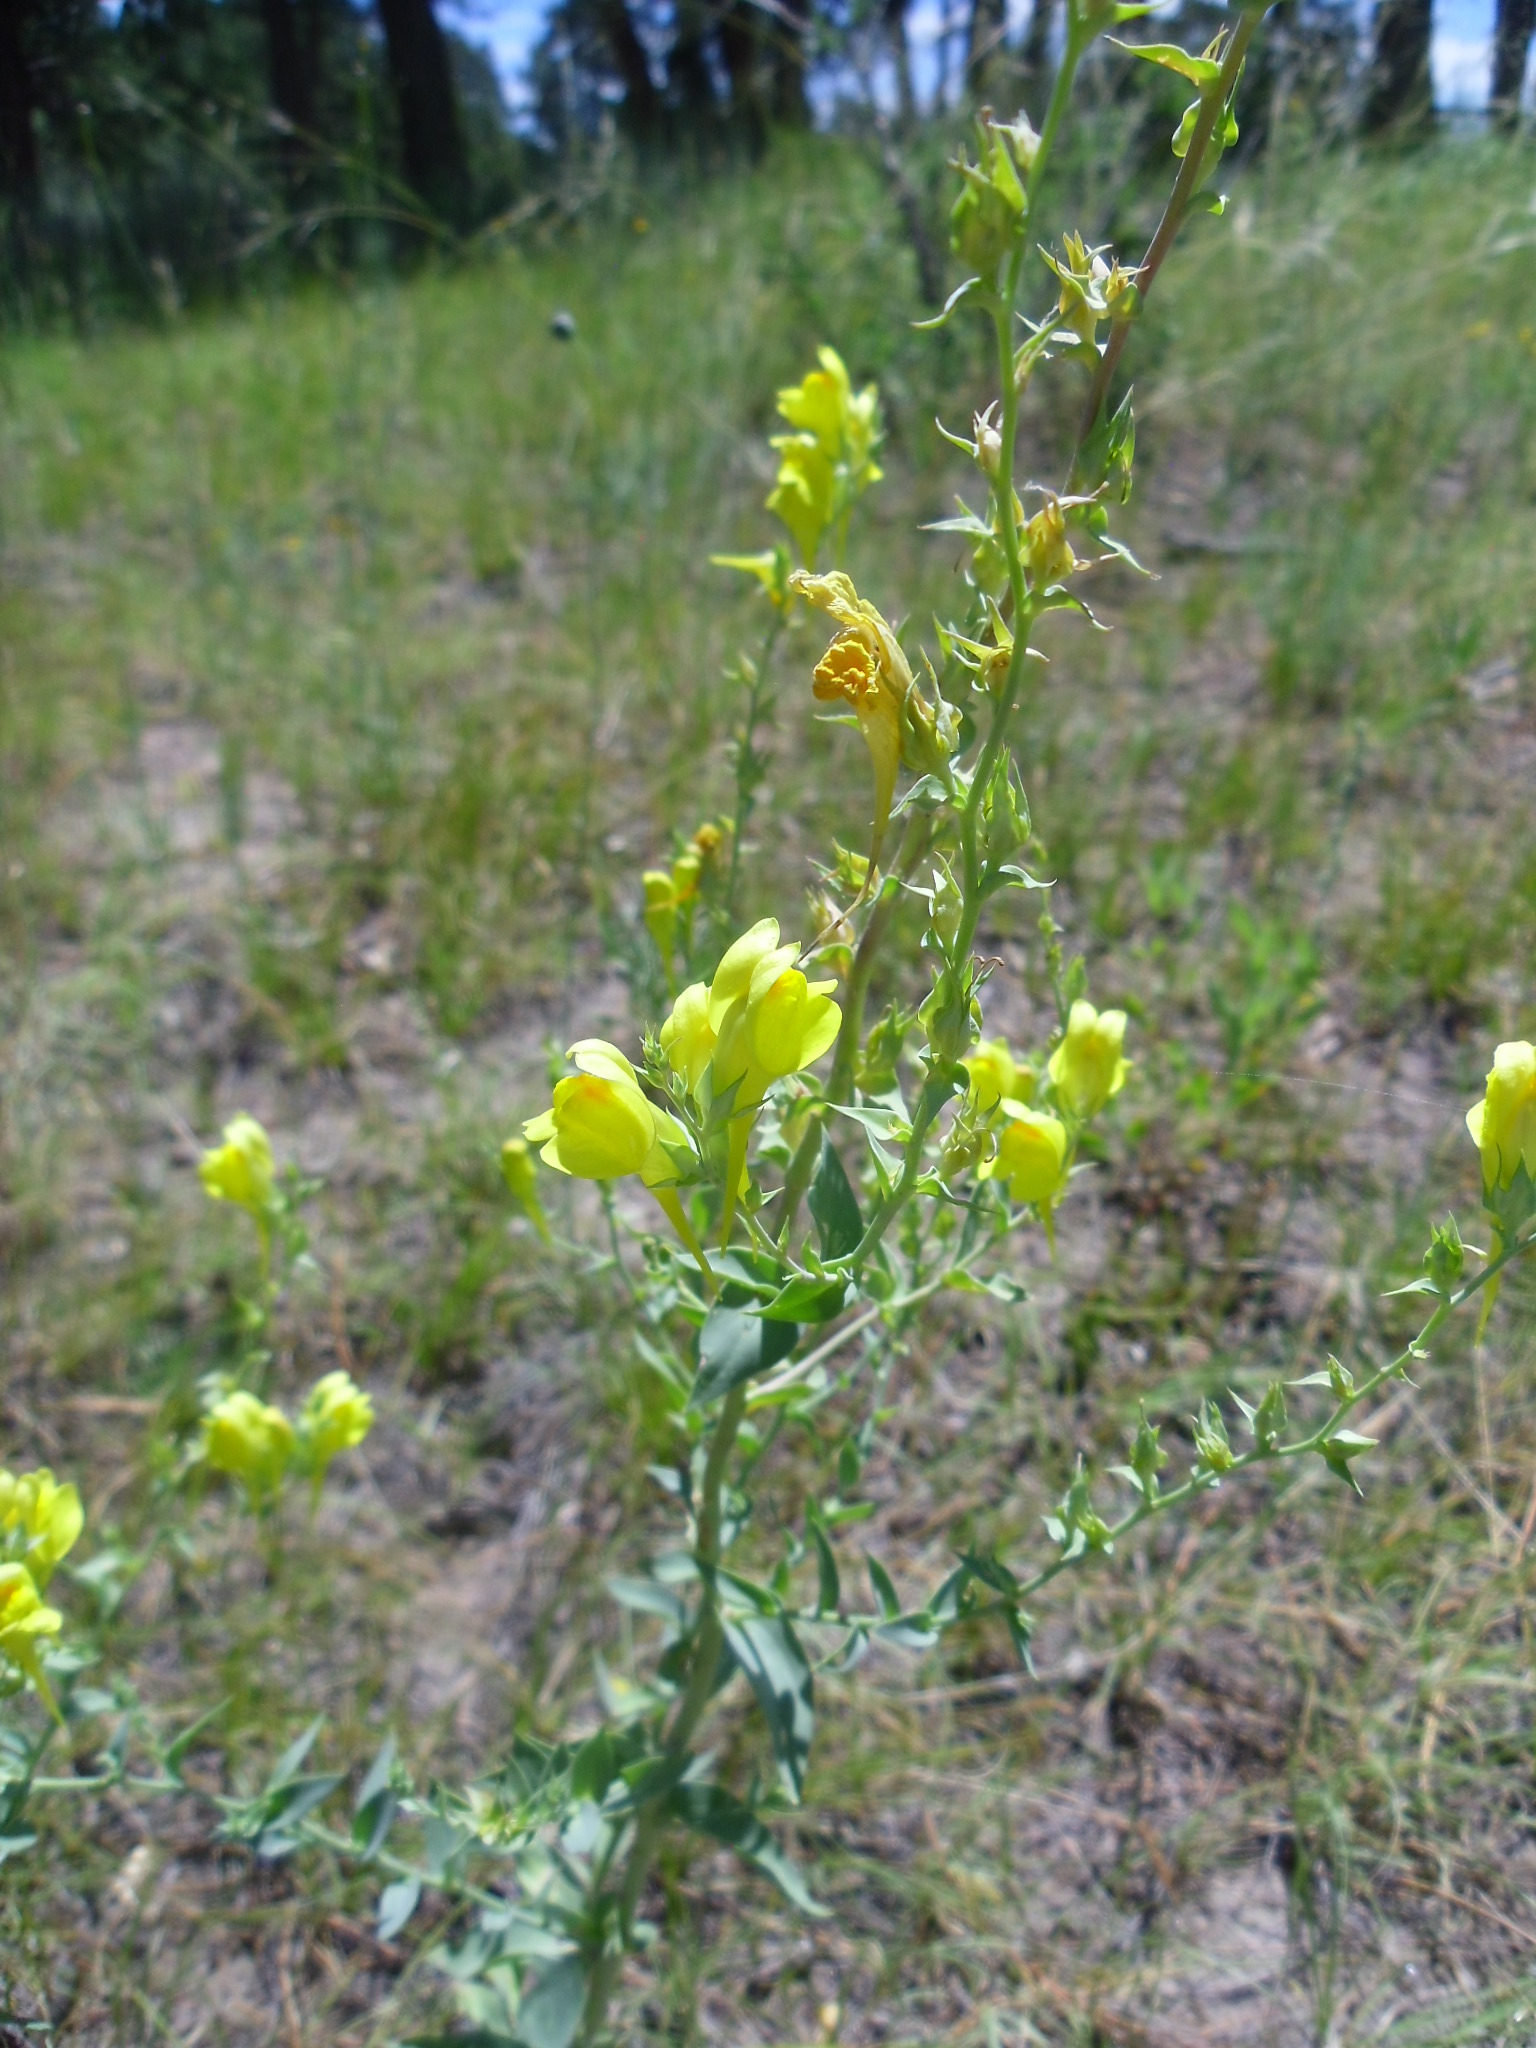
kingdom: Plantae
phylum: Tracheophyta
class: Magnoliopsida
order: Lamiales
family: Plantaginaceae
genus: Linaria
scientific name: Linaria dalmatica
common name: Dalmatian toadflax
